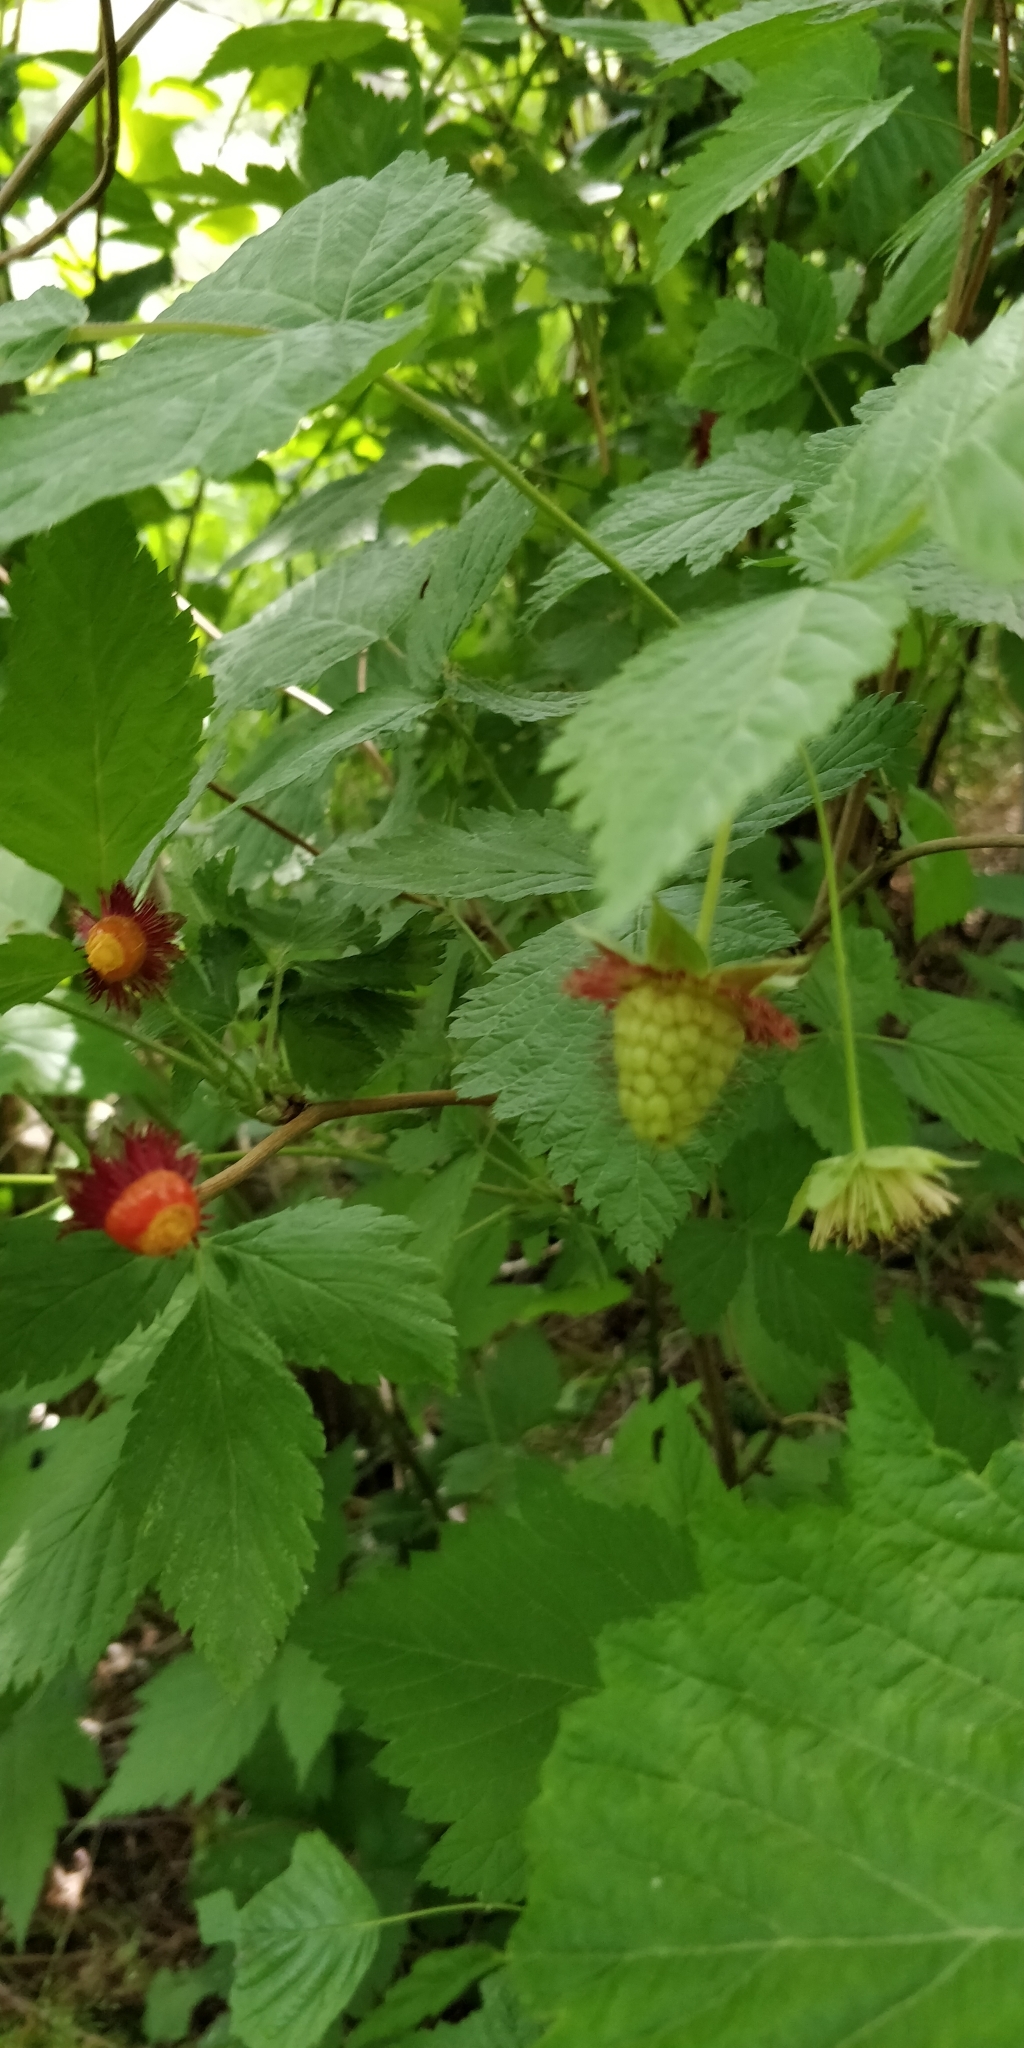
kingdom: Plantae
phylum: Tracheophyta
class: Magnoliopsida
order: Rosales
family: Rosaceae
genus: Rubus
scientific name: Rubus spectabilis
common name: Salmonberry
